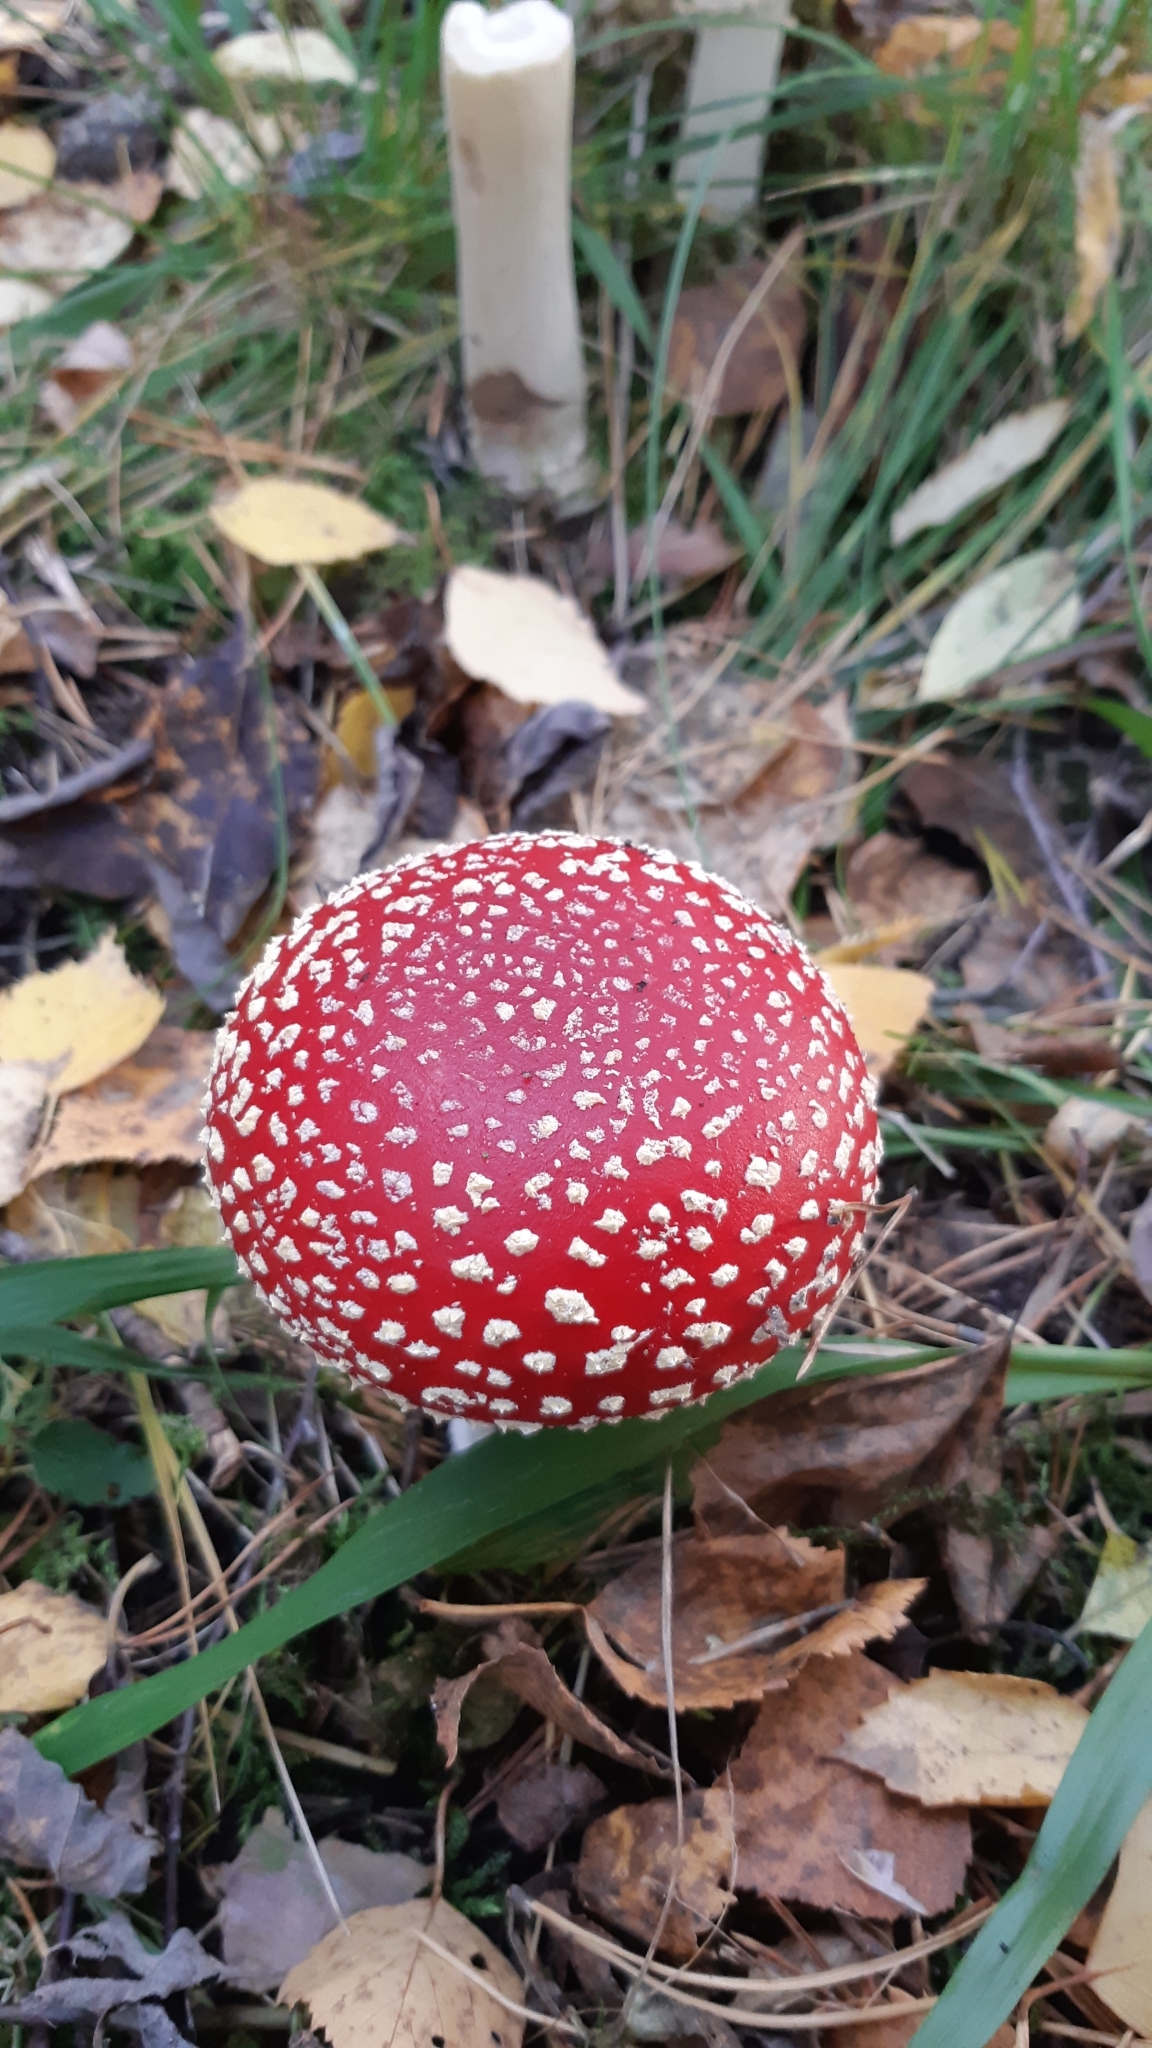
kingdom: Fungi
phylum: Basidiomycota
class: Agaricomycetes
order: Agaricales
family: Amanitaceae
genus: Amanita
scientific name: Amanita muscaria
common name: Fly agaric
